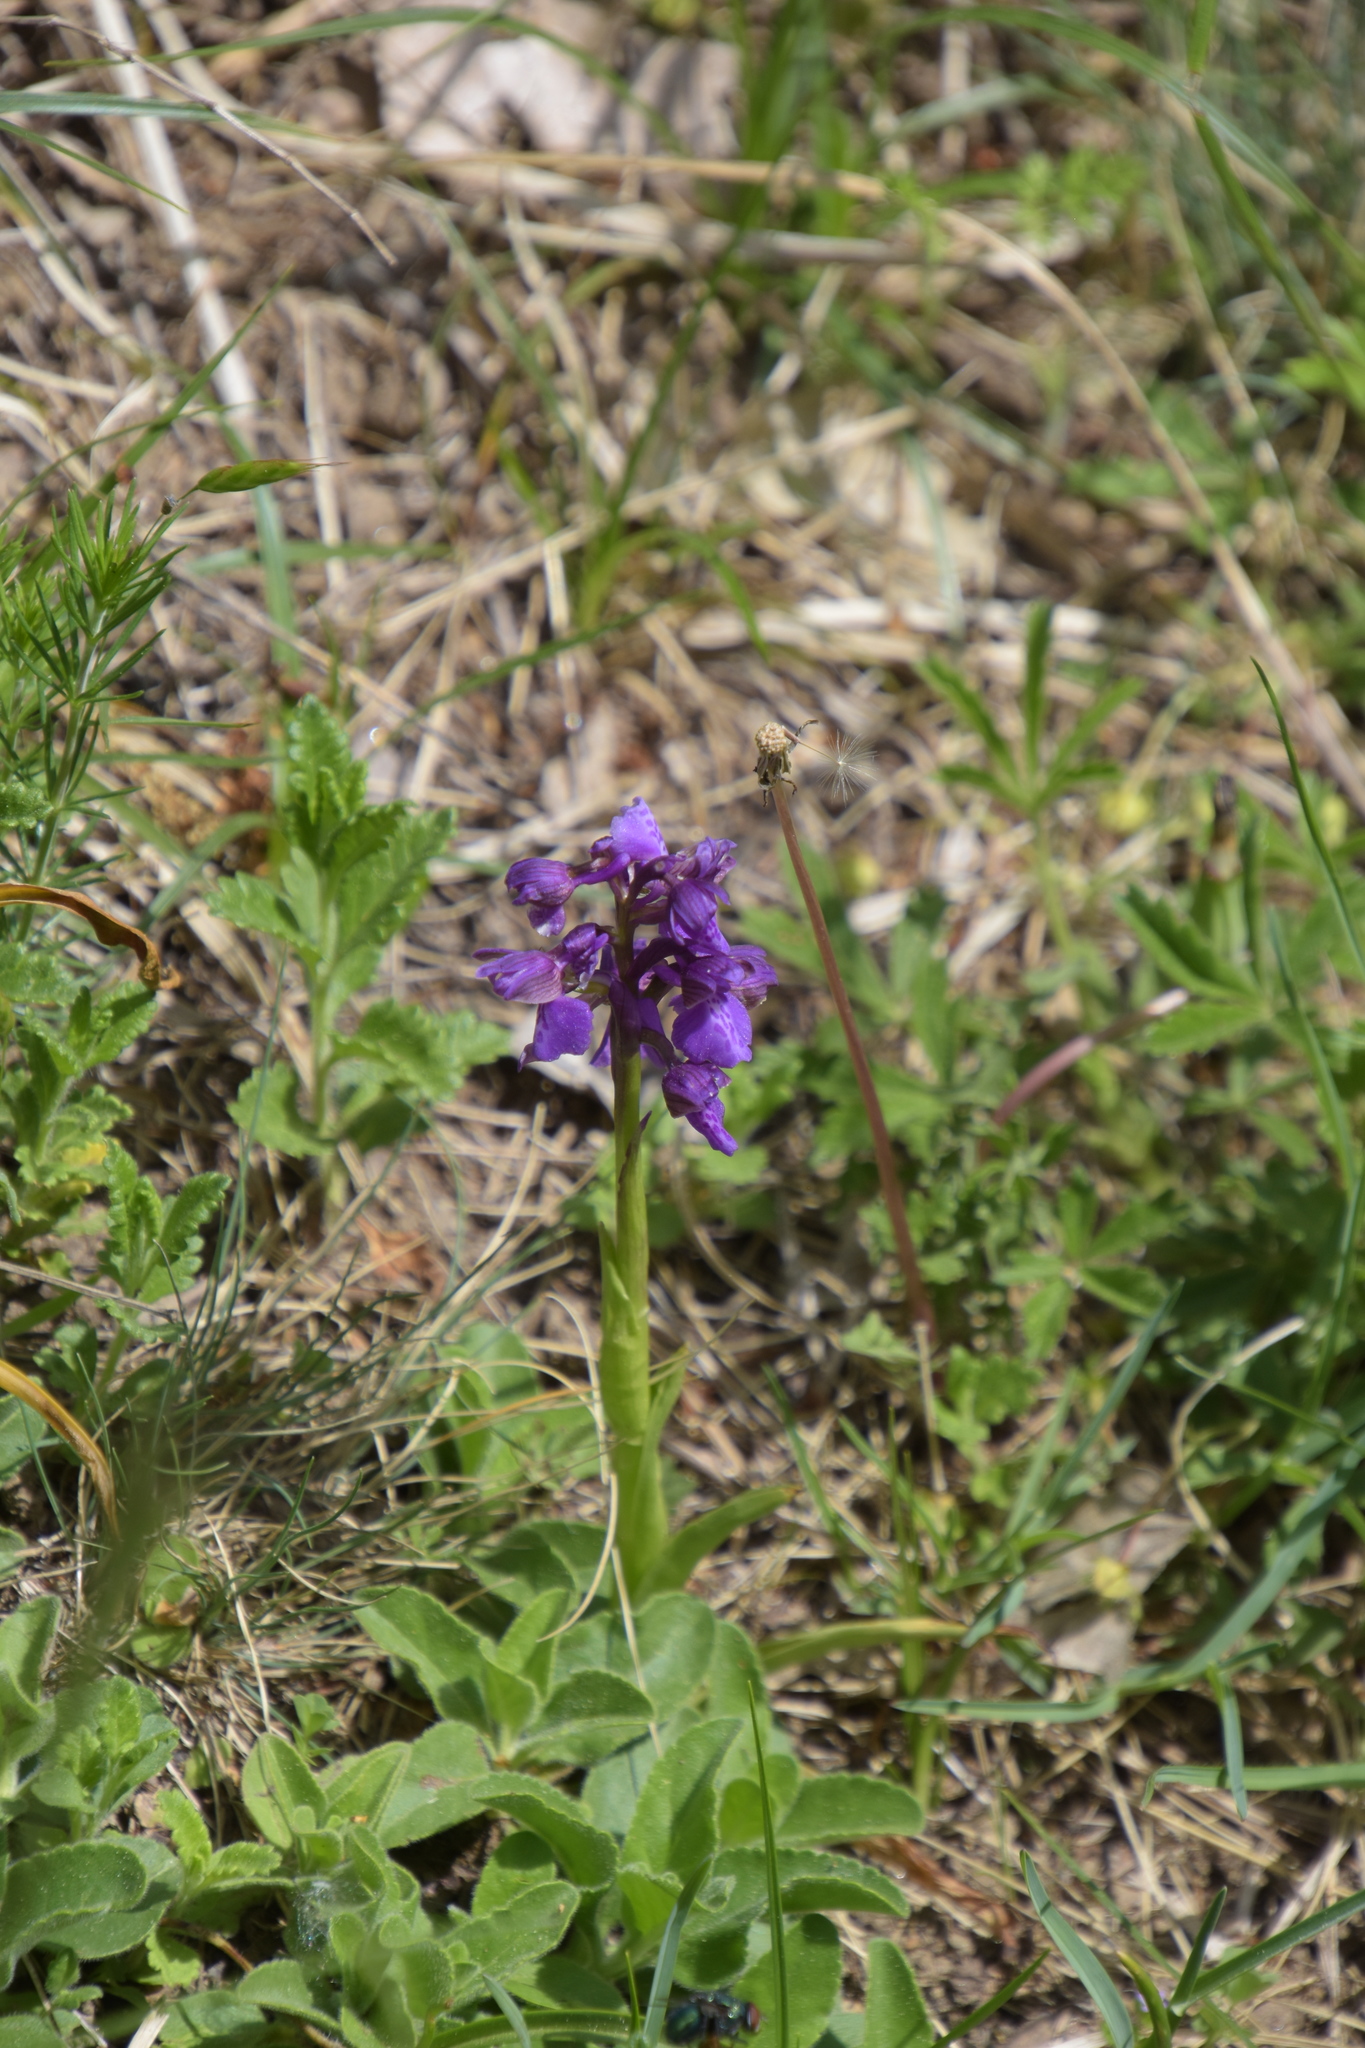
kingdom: Plantae
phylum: Tracheophyta
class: Liliopsida
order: Asparagales
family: Orchidaceae
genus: Anacamptis
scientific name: Anacamptis morio
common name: Green-winged orchid
